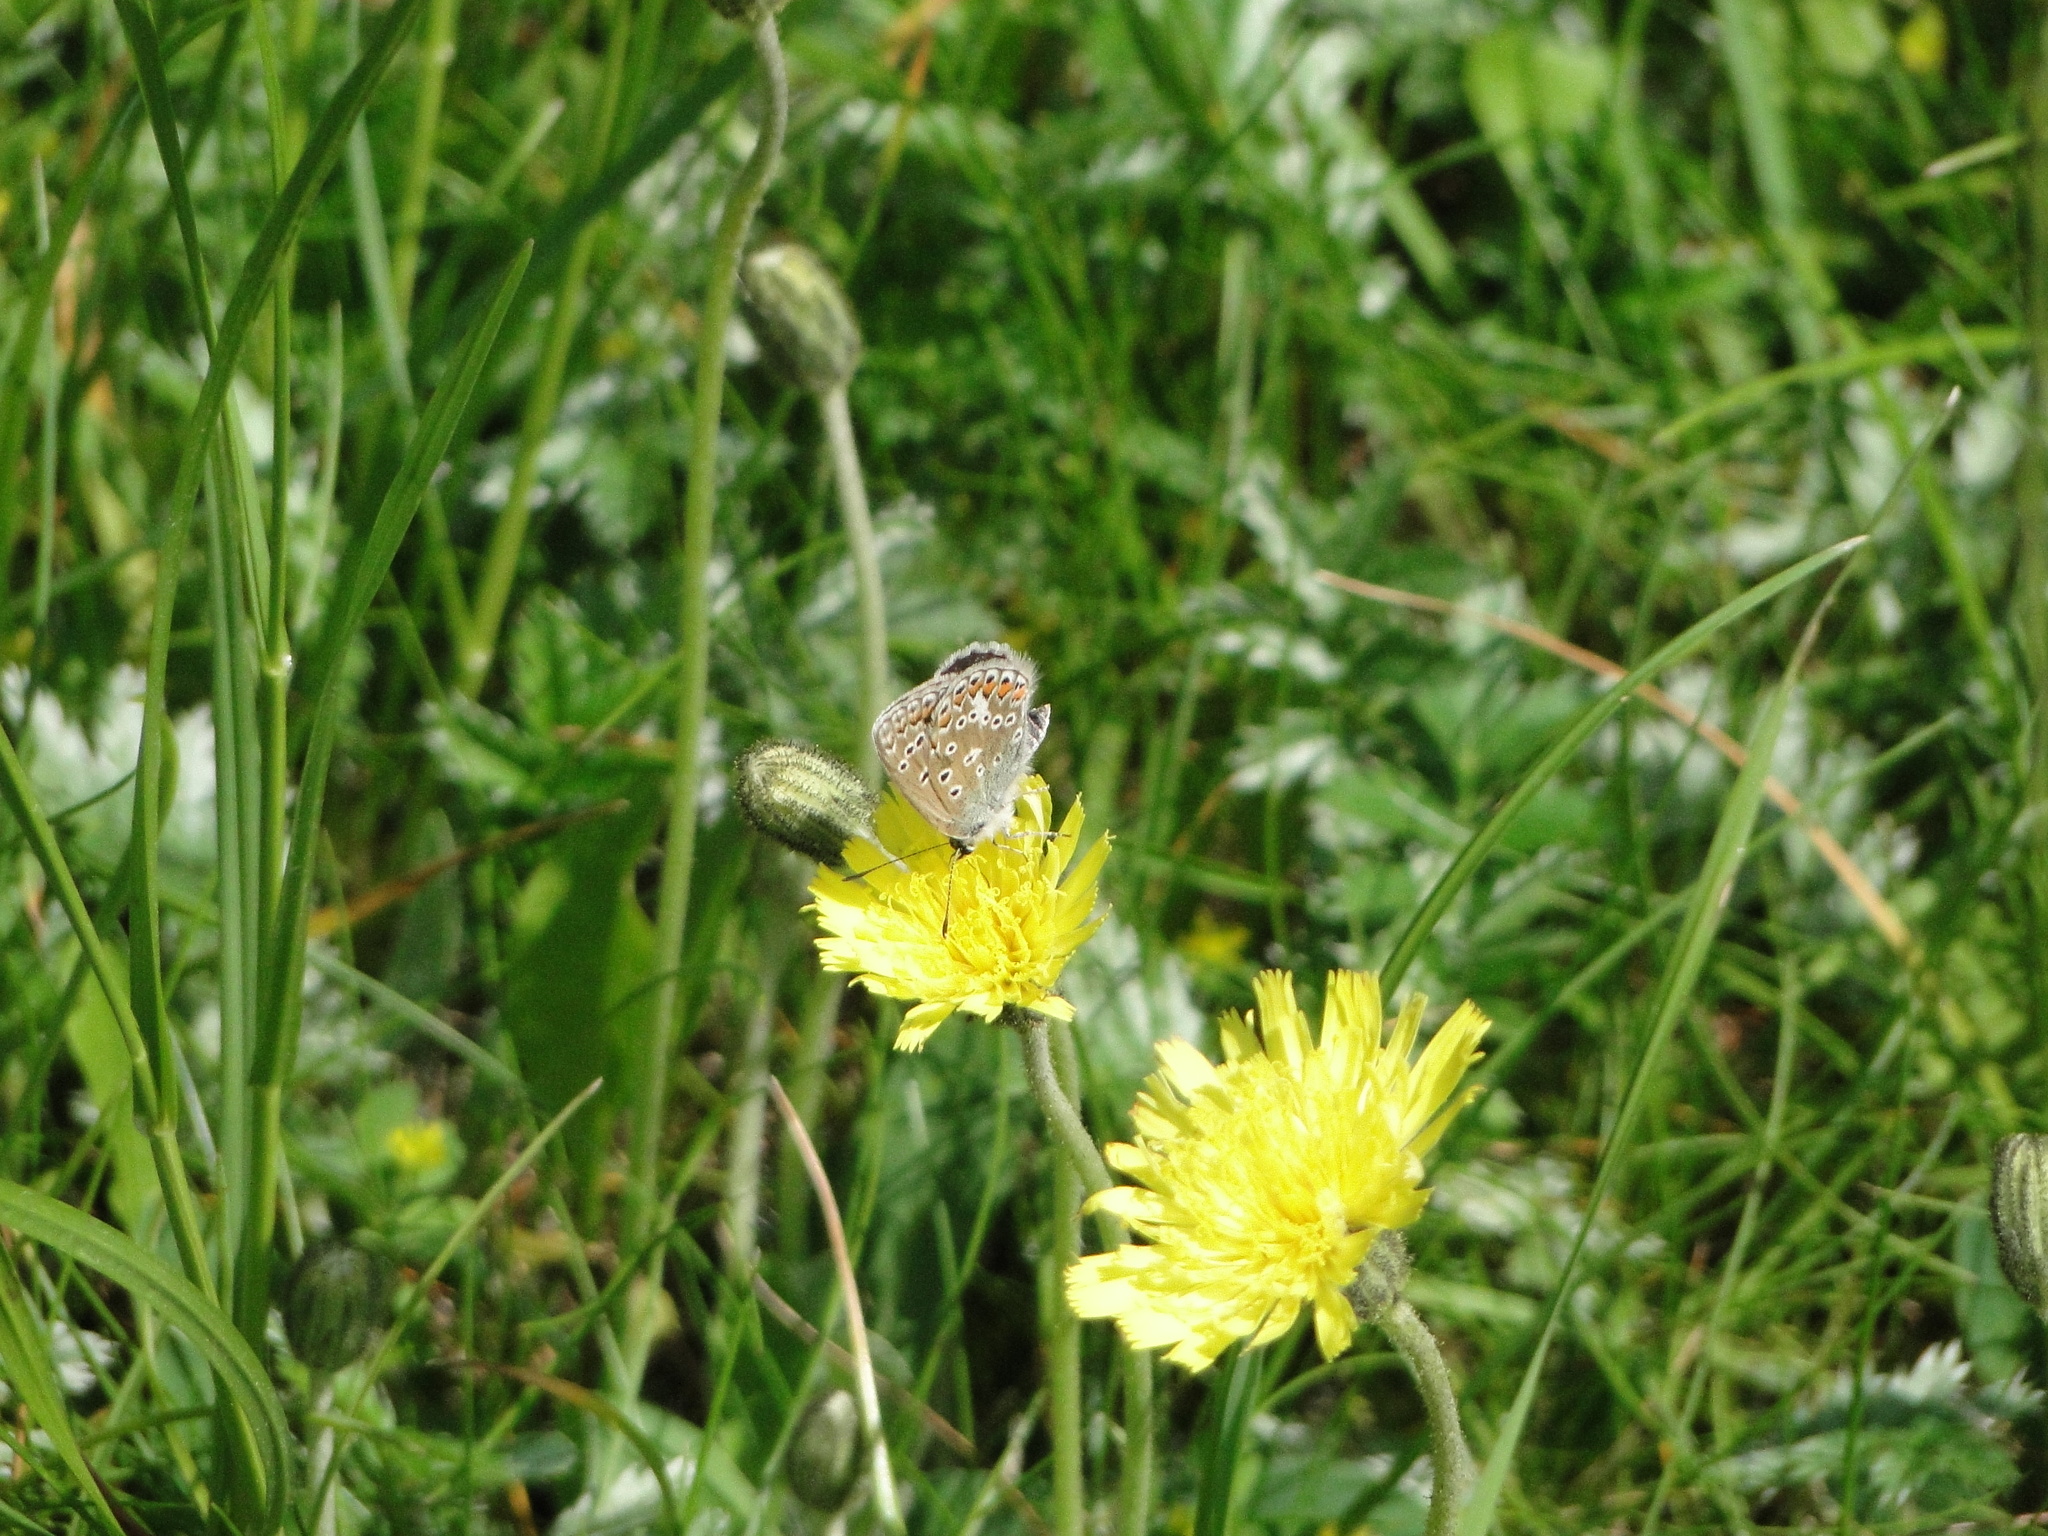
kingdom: Animalia
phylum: Arthropoda
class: Insecta
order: Lepidoptera
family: Lycaenidae
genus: Polyommatus
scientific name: Polyommatus icarus
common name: Common blue
